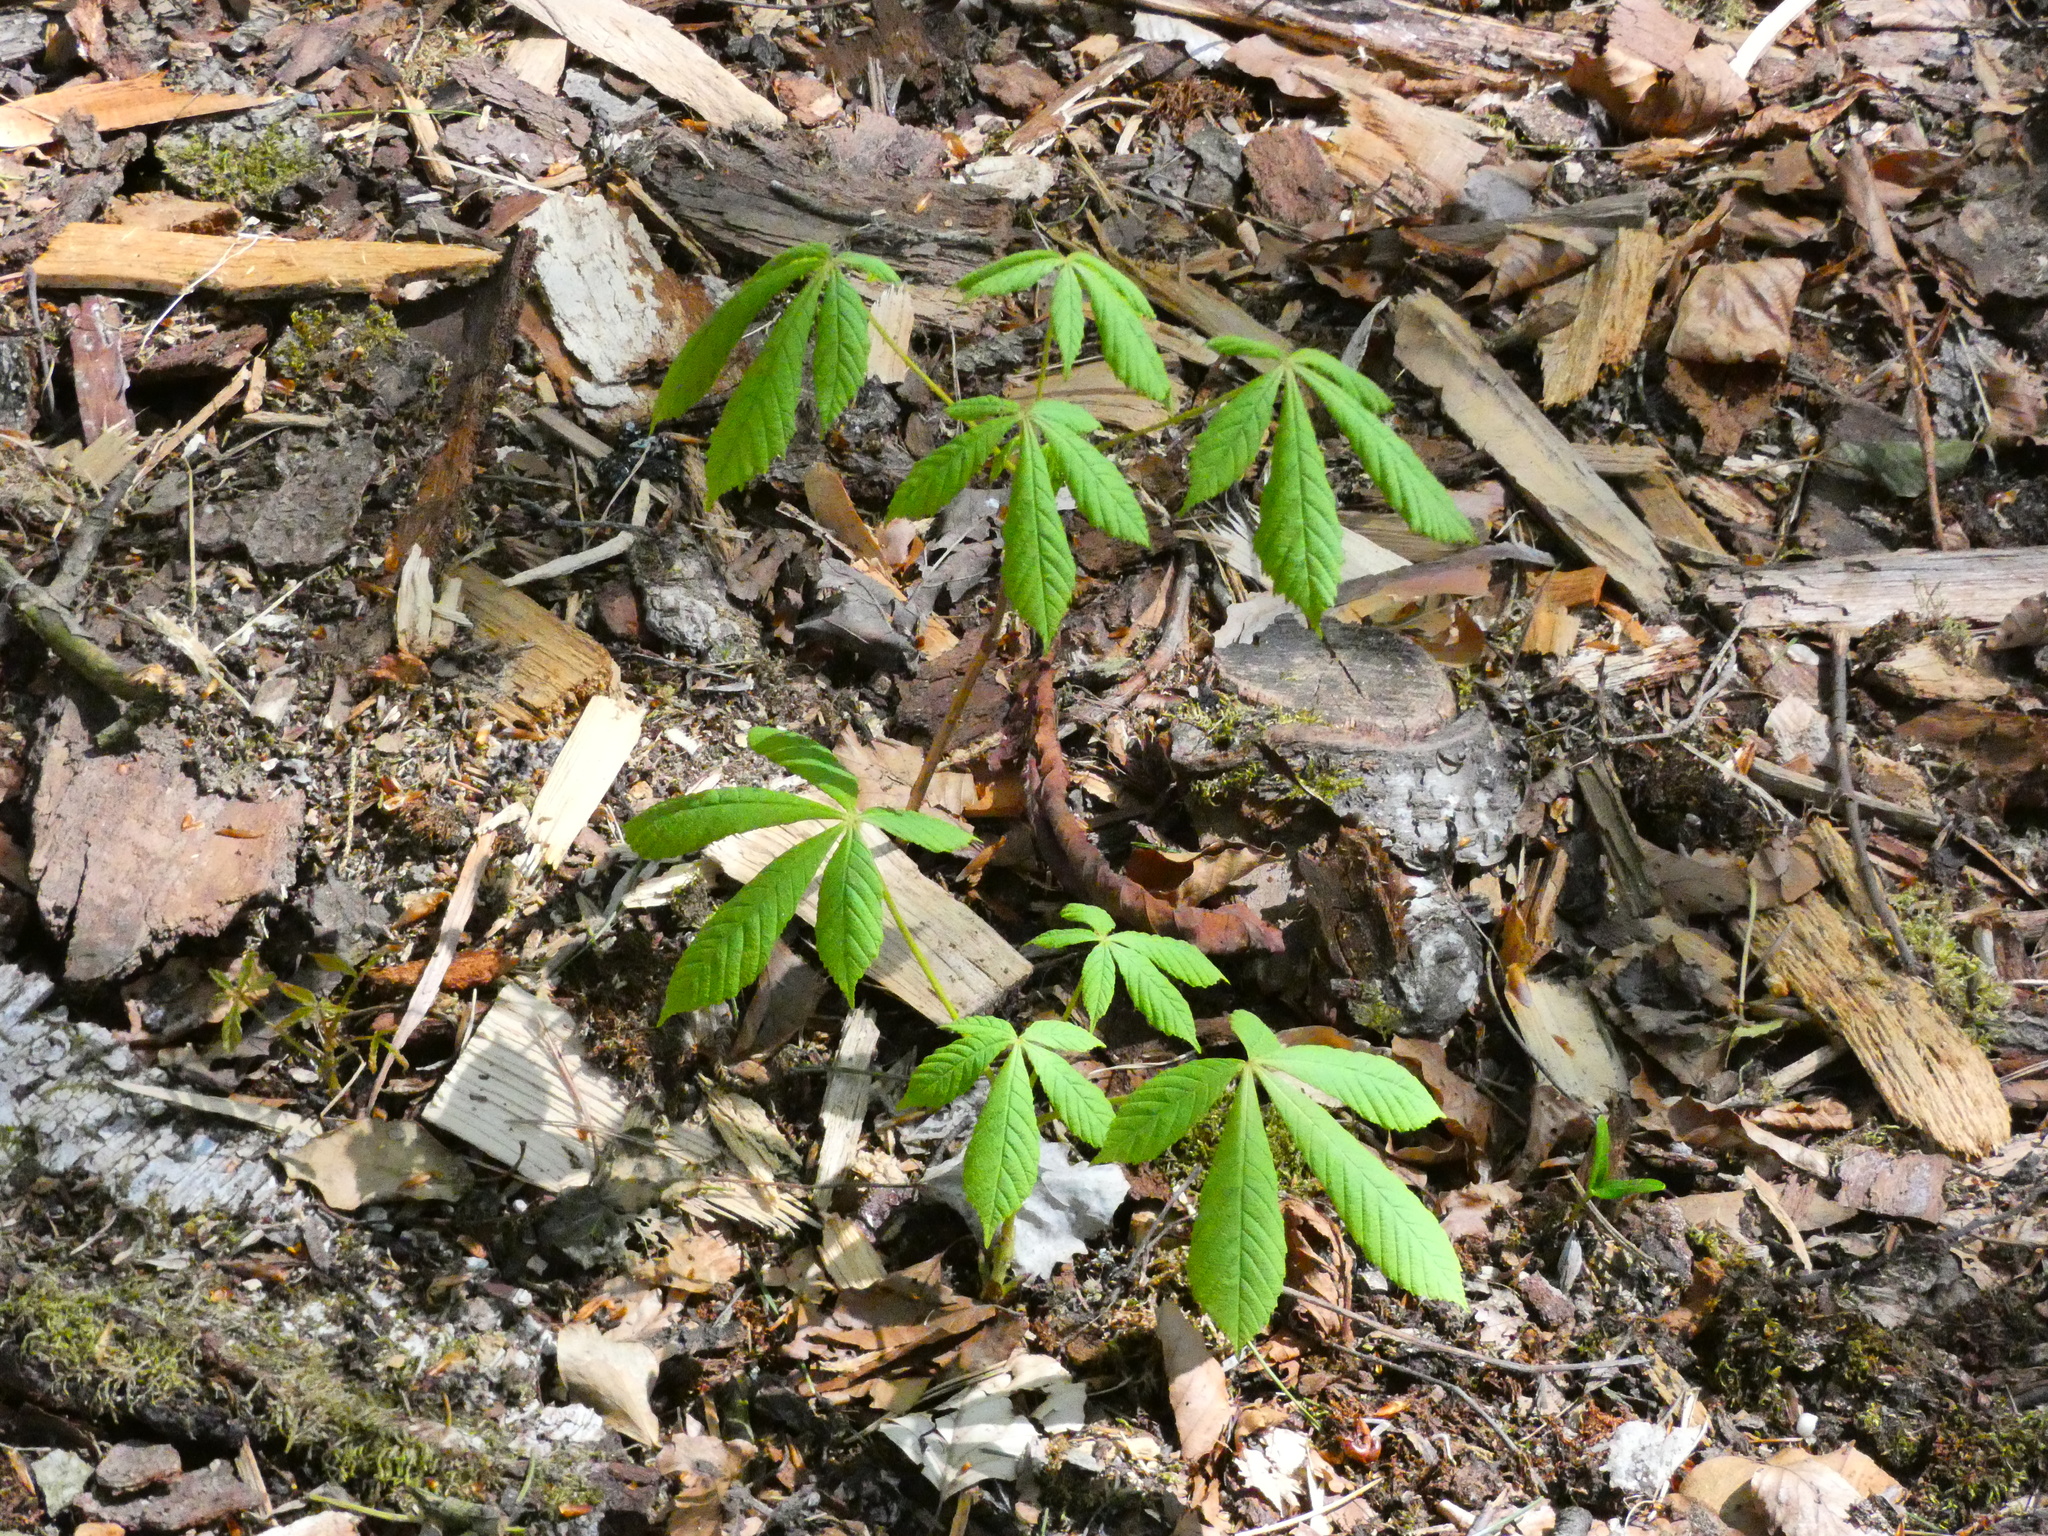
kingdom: Plantae
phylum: Tracheophyta
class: Magnoliopsida
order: Sapindales
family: Sapindaceae
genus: Aesculus
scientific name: Aesculus hippocastanum
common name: Horse-chestnut
